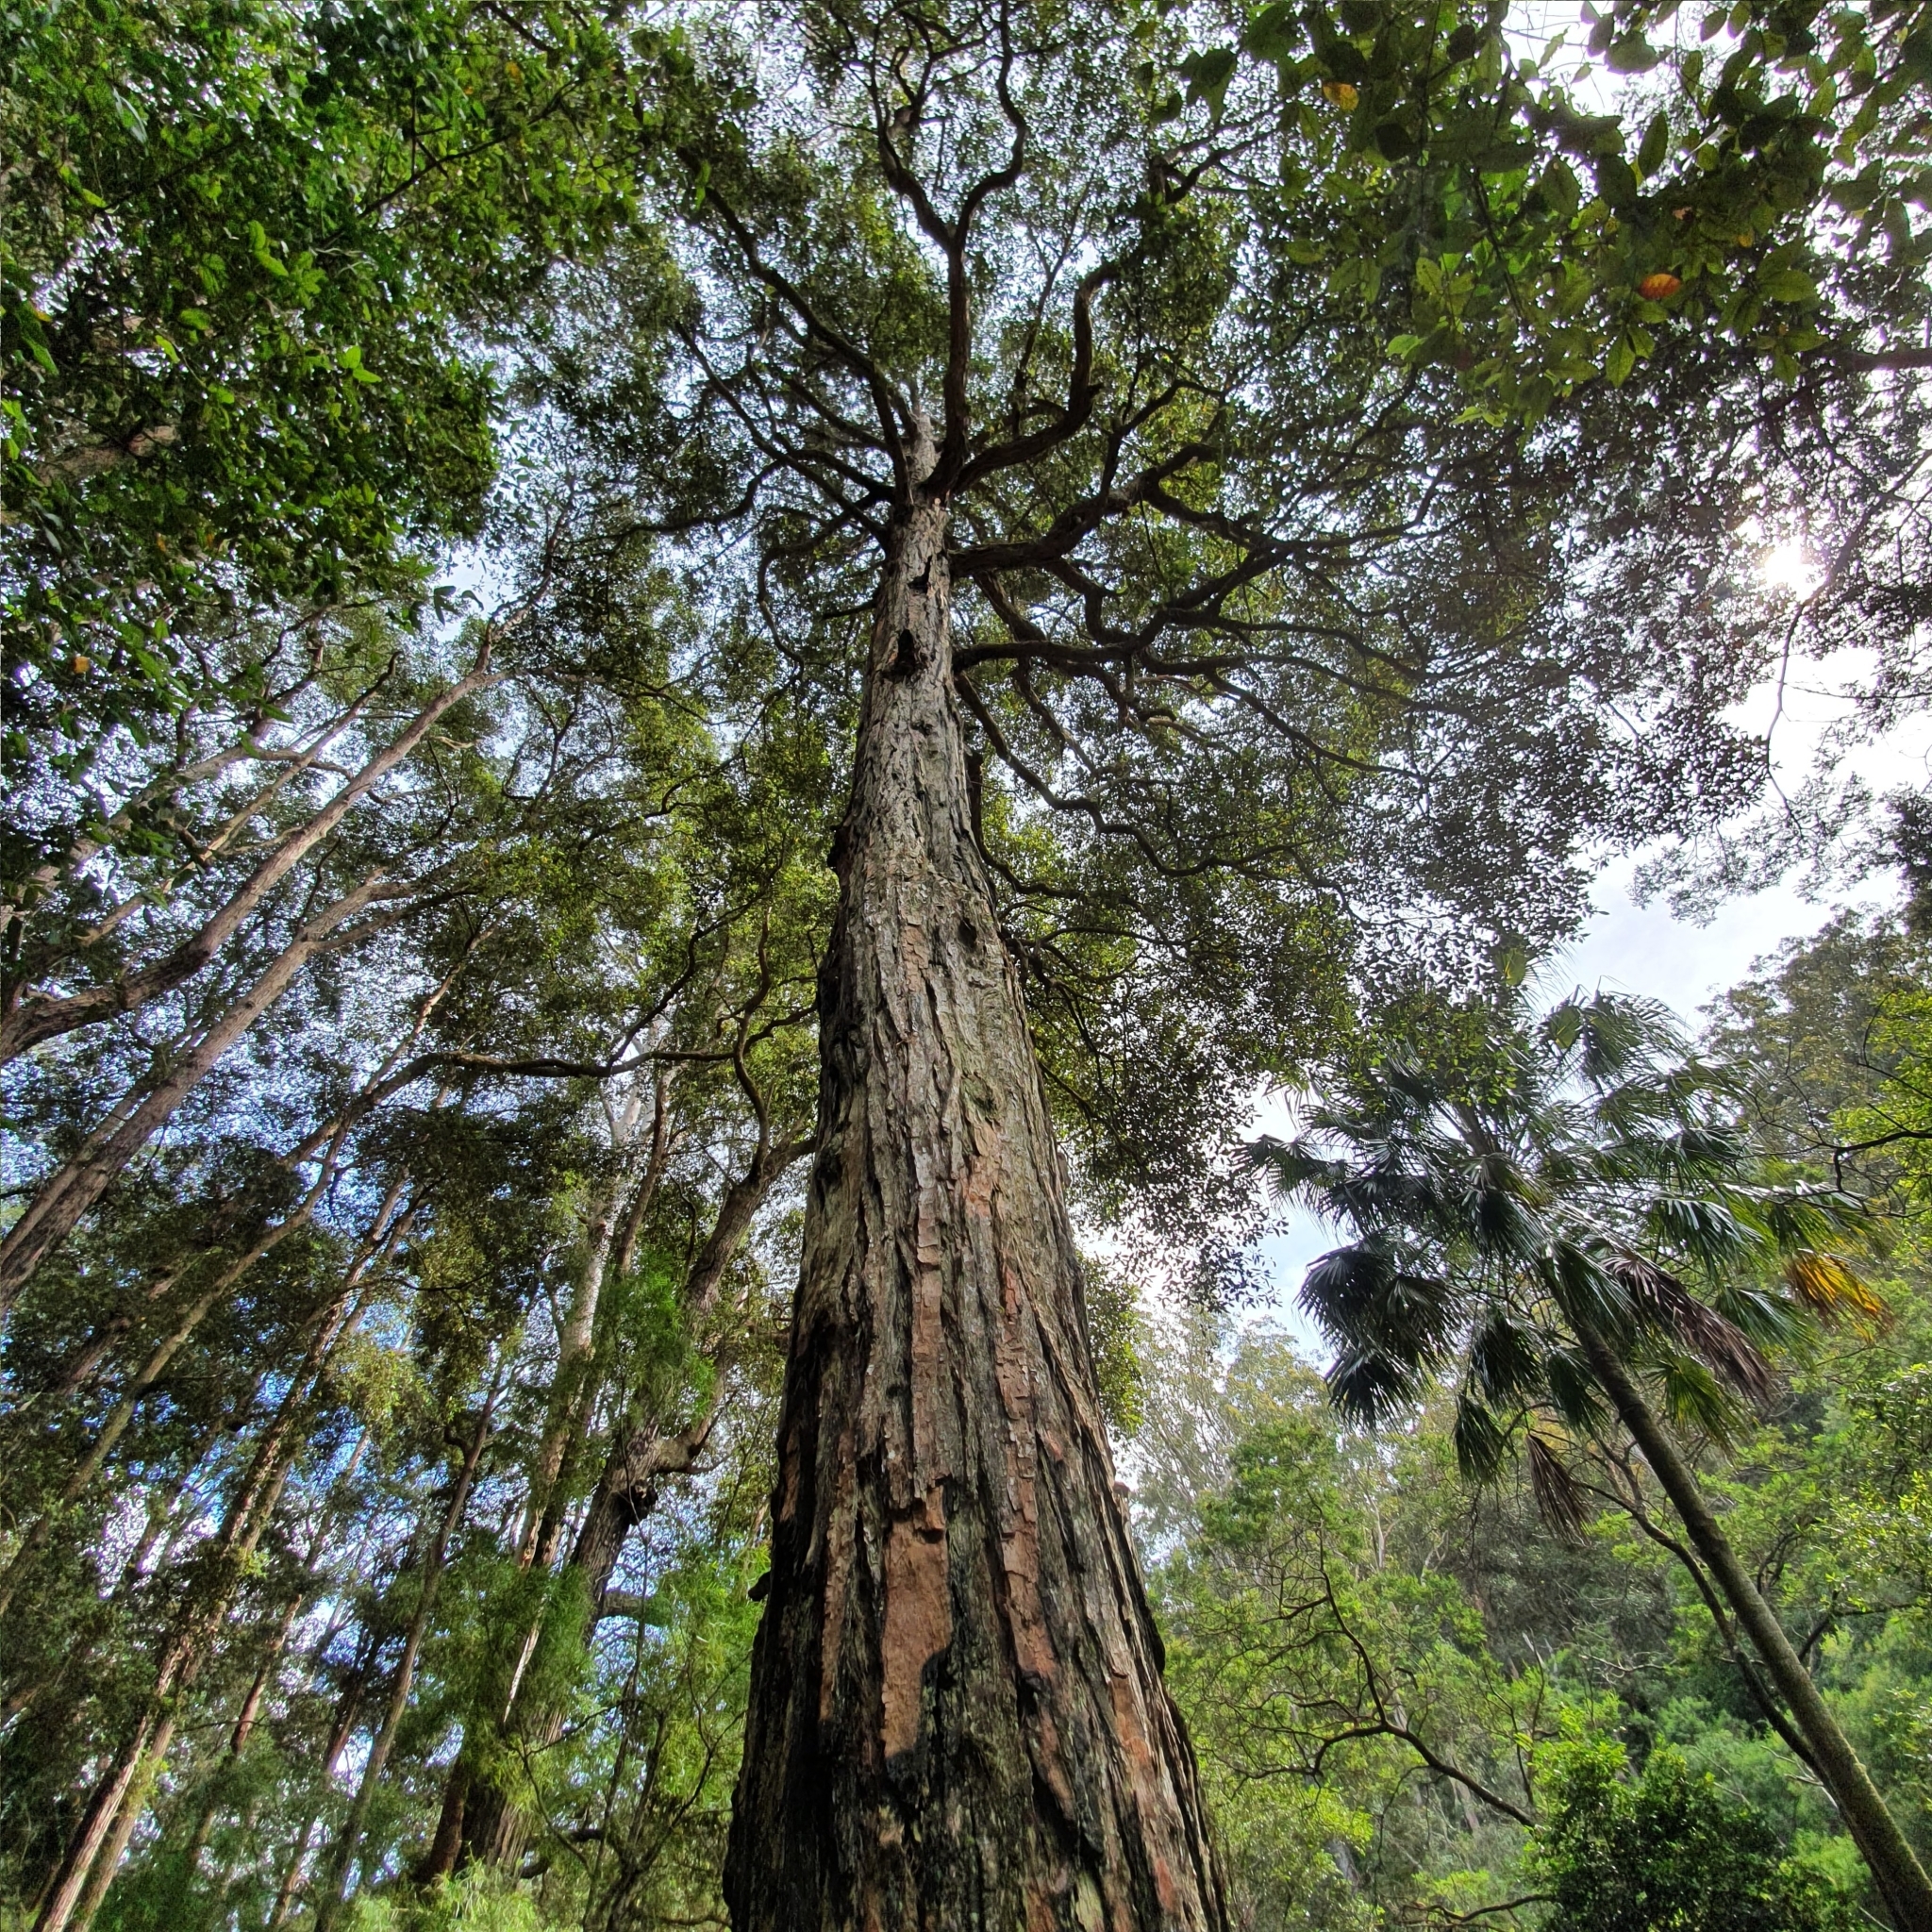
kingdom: Plantae
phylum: Tracheophyta
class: Magnoliopsida
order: Myrtales
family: Myrtaceae
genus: Syncarpia
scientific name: Syncarpia glomulifera
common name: Turpentine tree
